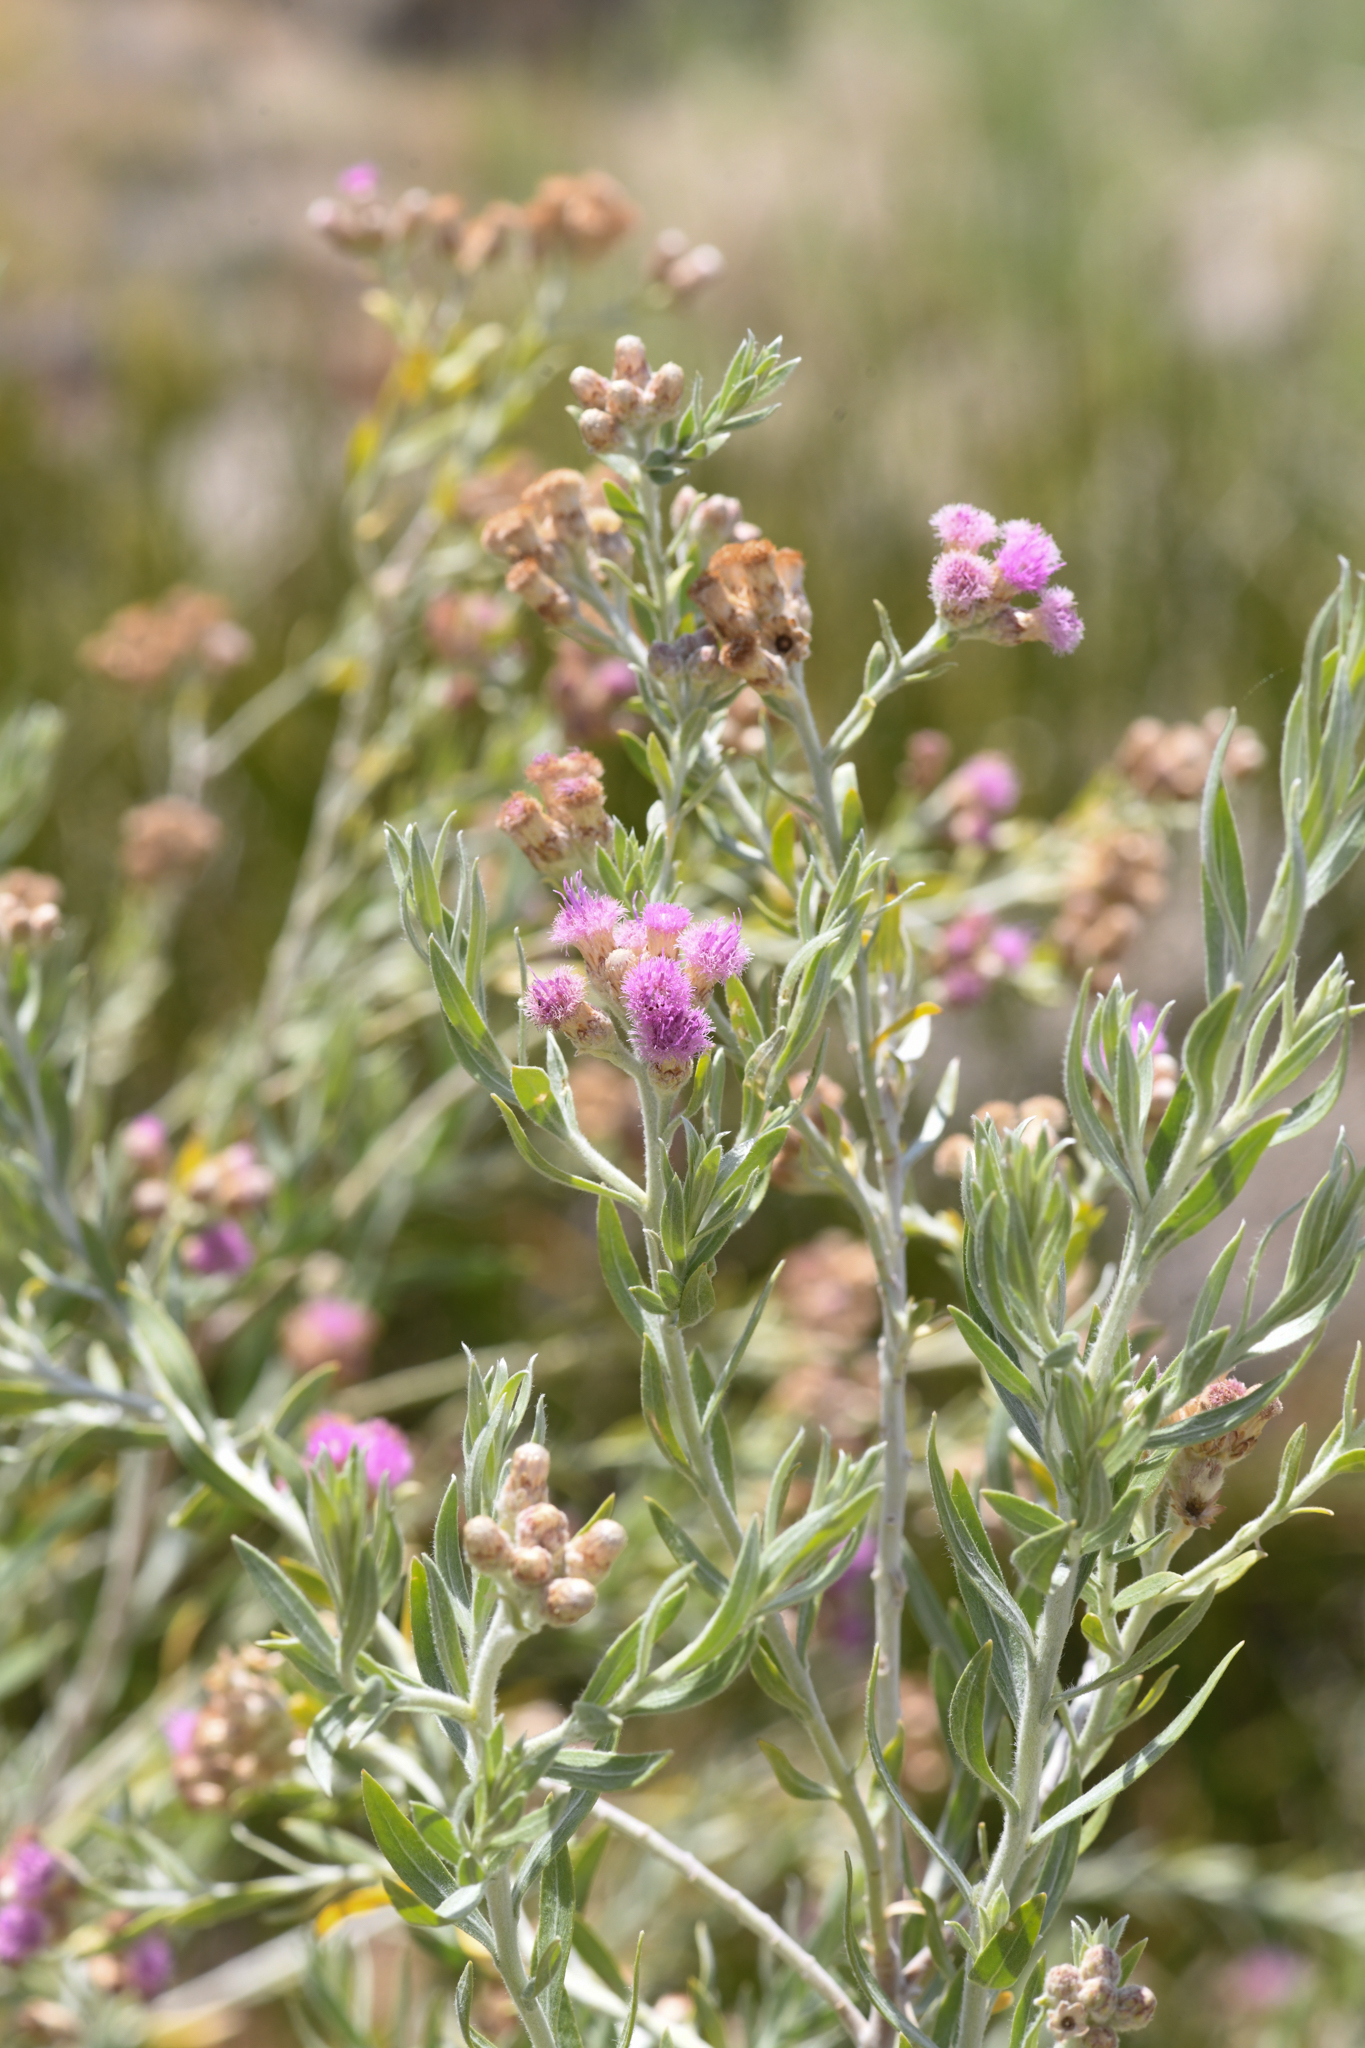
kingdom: Plantae
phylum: Tracheophyta
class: Magnoliopsida
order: Asterales
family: Asteraceae
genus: Pluchea
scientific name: Pluchea sericea
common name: Arrow-weed
